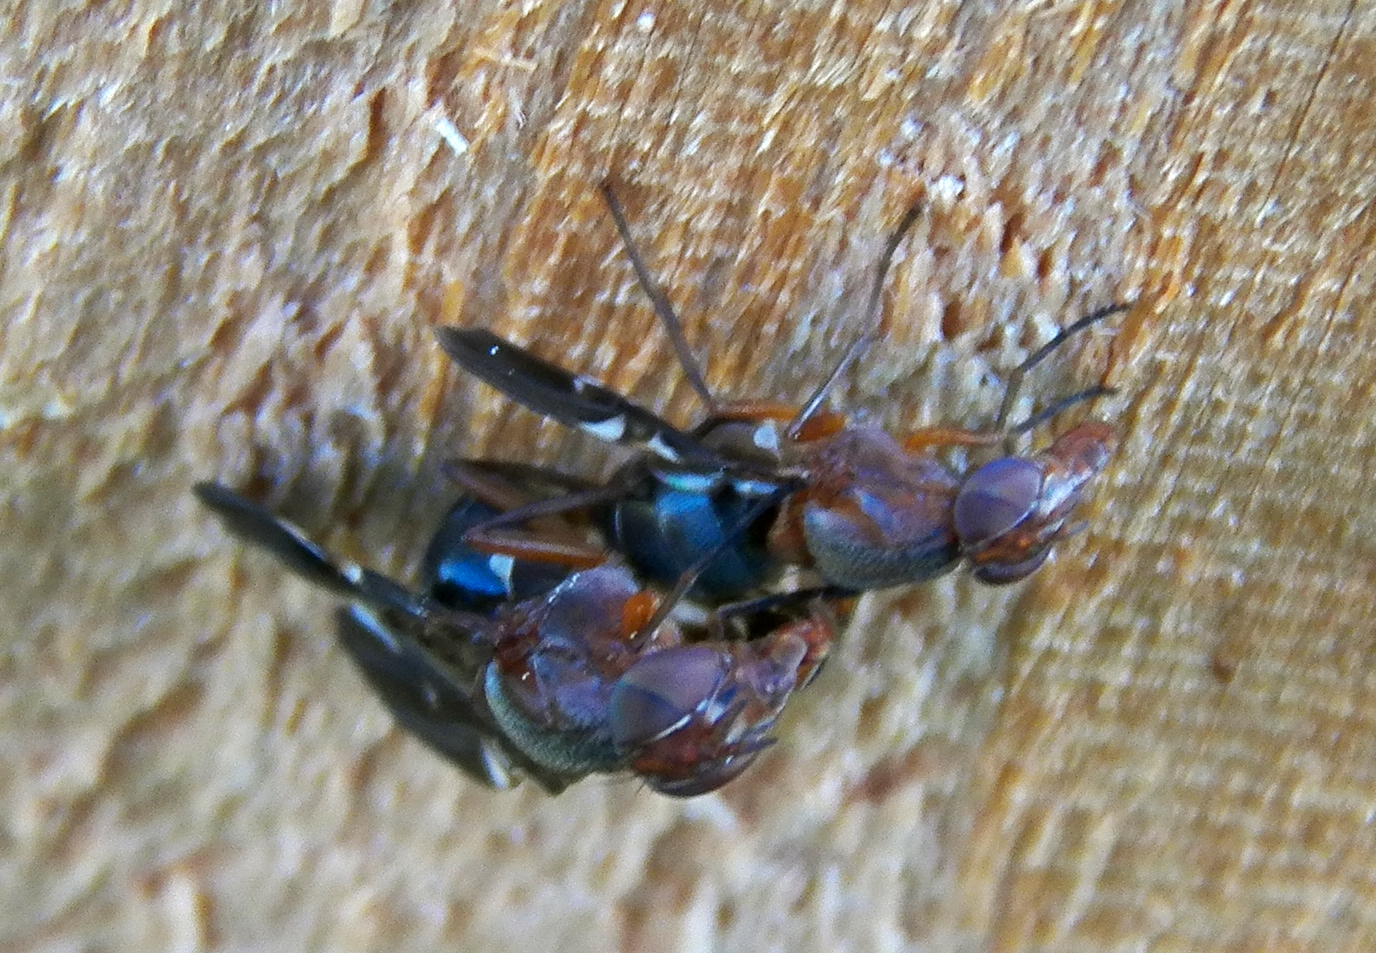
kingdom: Animalia
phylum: Arthropoda
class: Insecta
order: Diptera
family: Ulidiidae
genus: Delphinia
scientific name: Delphinia picta
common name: Common picture-winged fly
